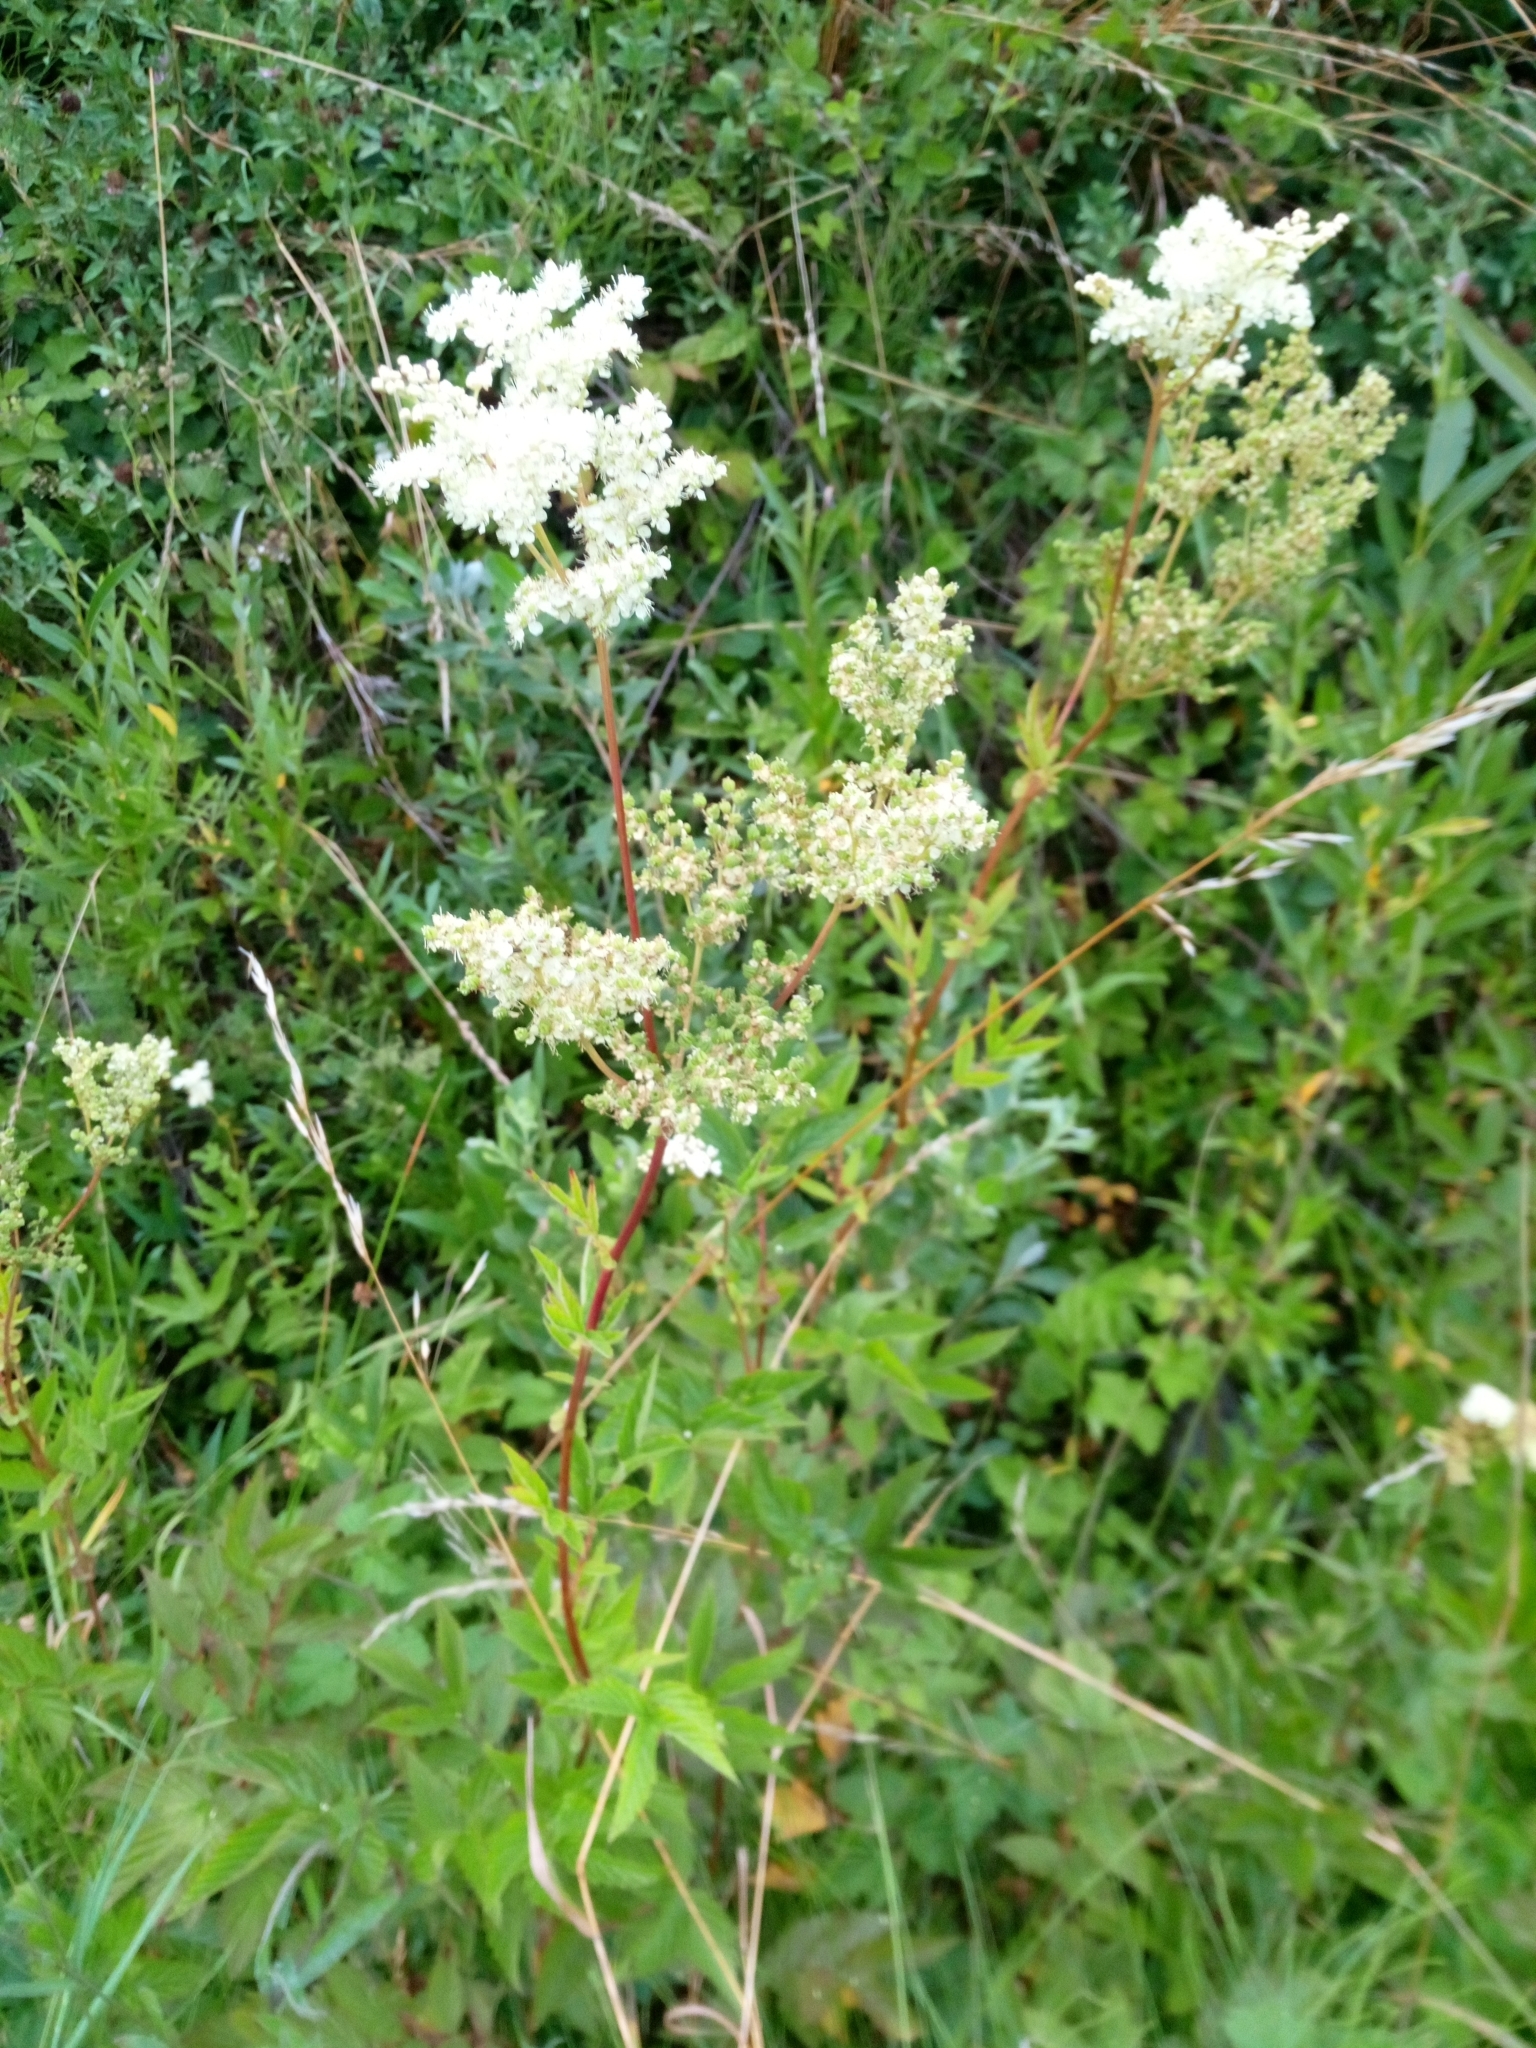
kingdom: Plantae
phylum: Tracheophyta
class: Magnoliopsida
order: Rosales
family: Rosaceae
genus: Filipendula
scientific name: Filipendula ulmaria
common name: Meadowsweet
